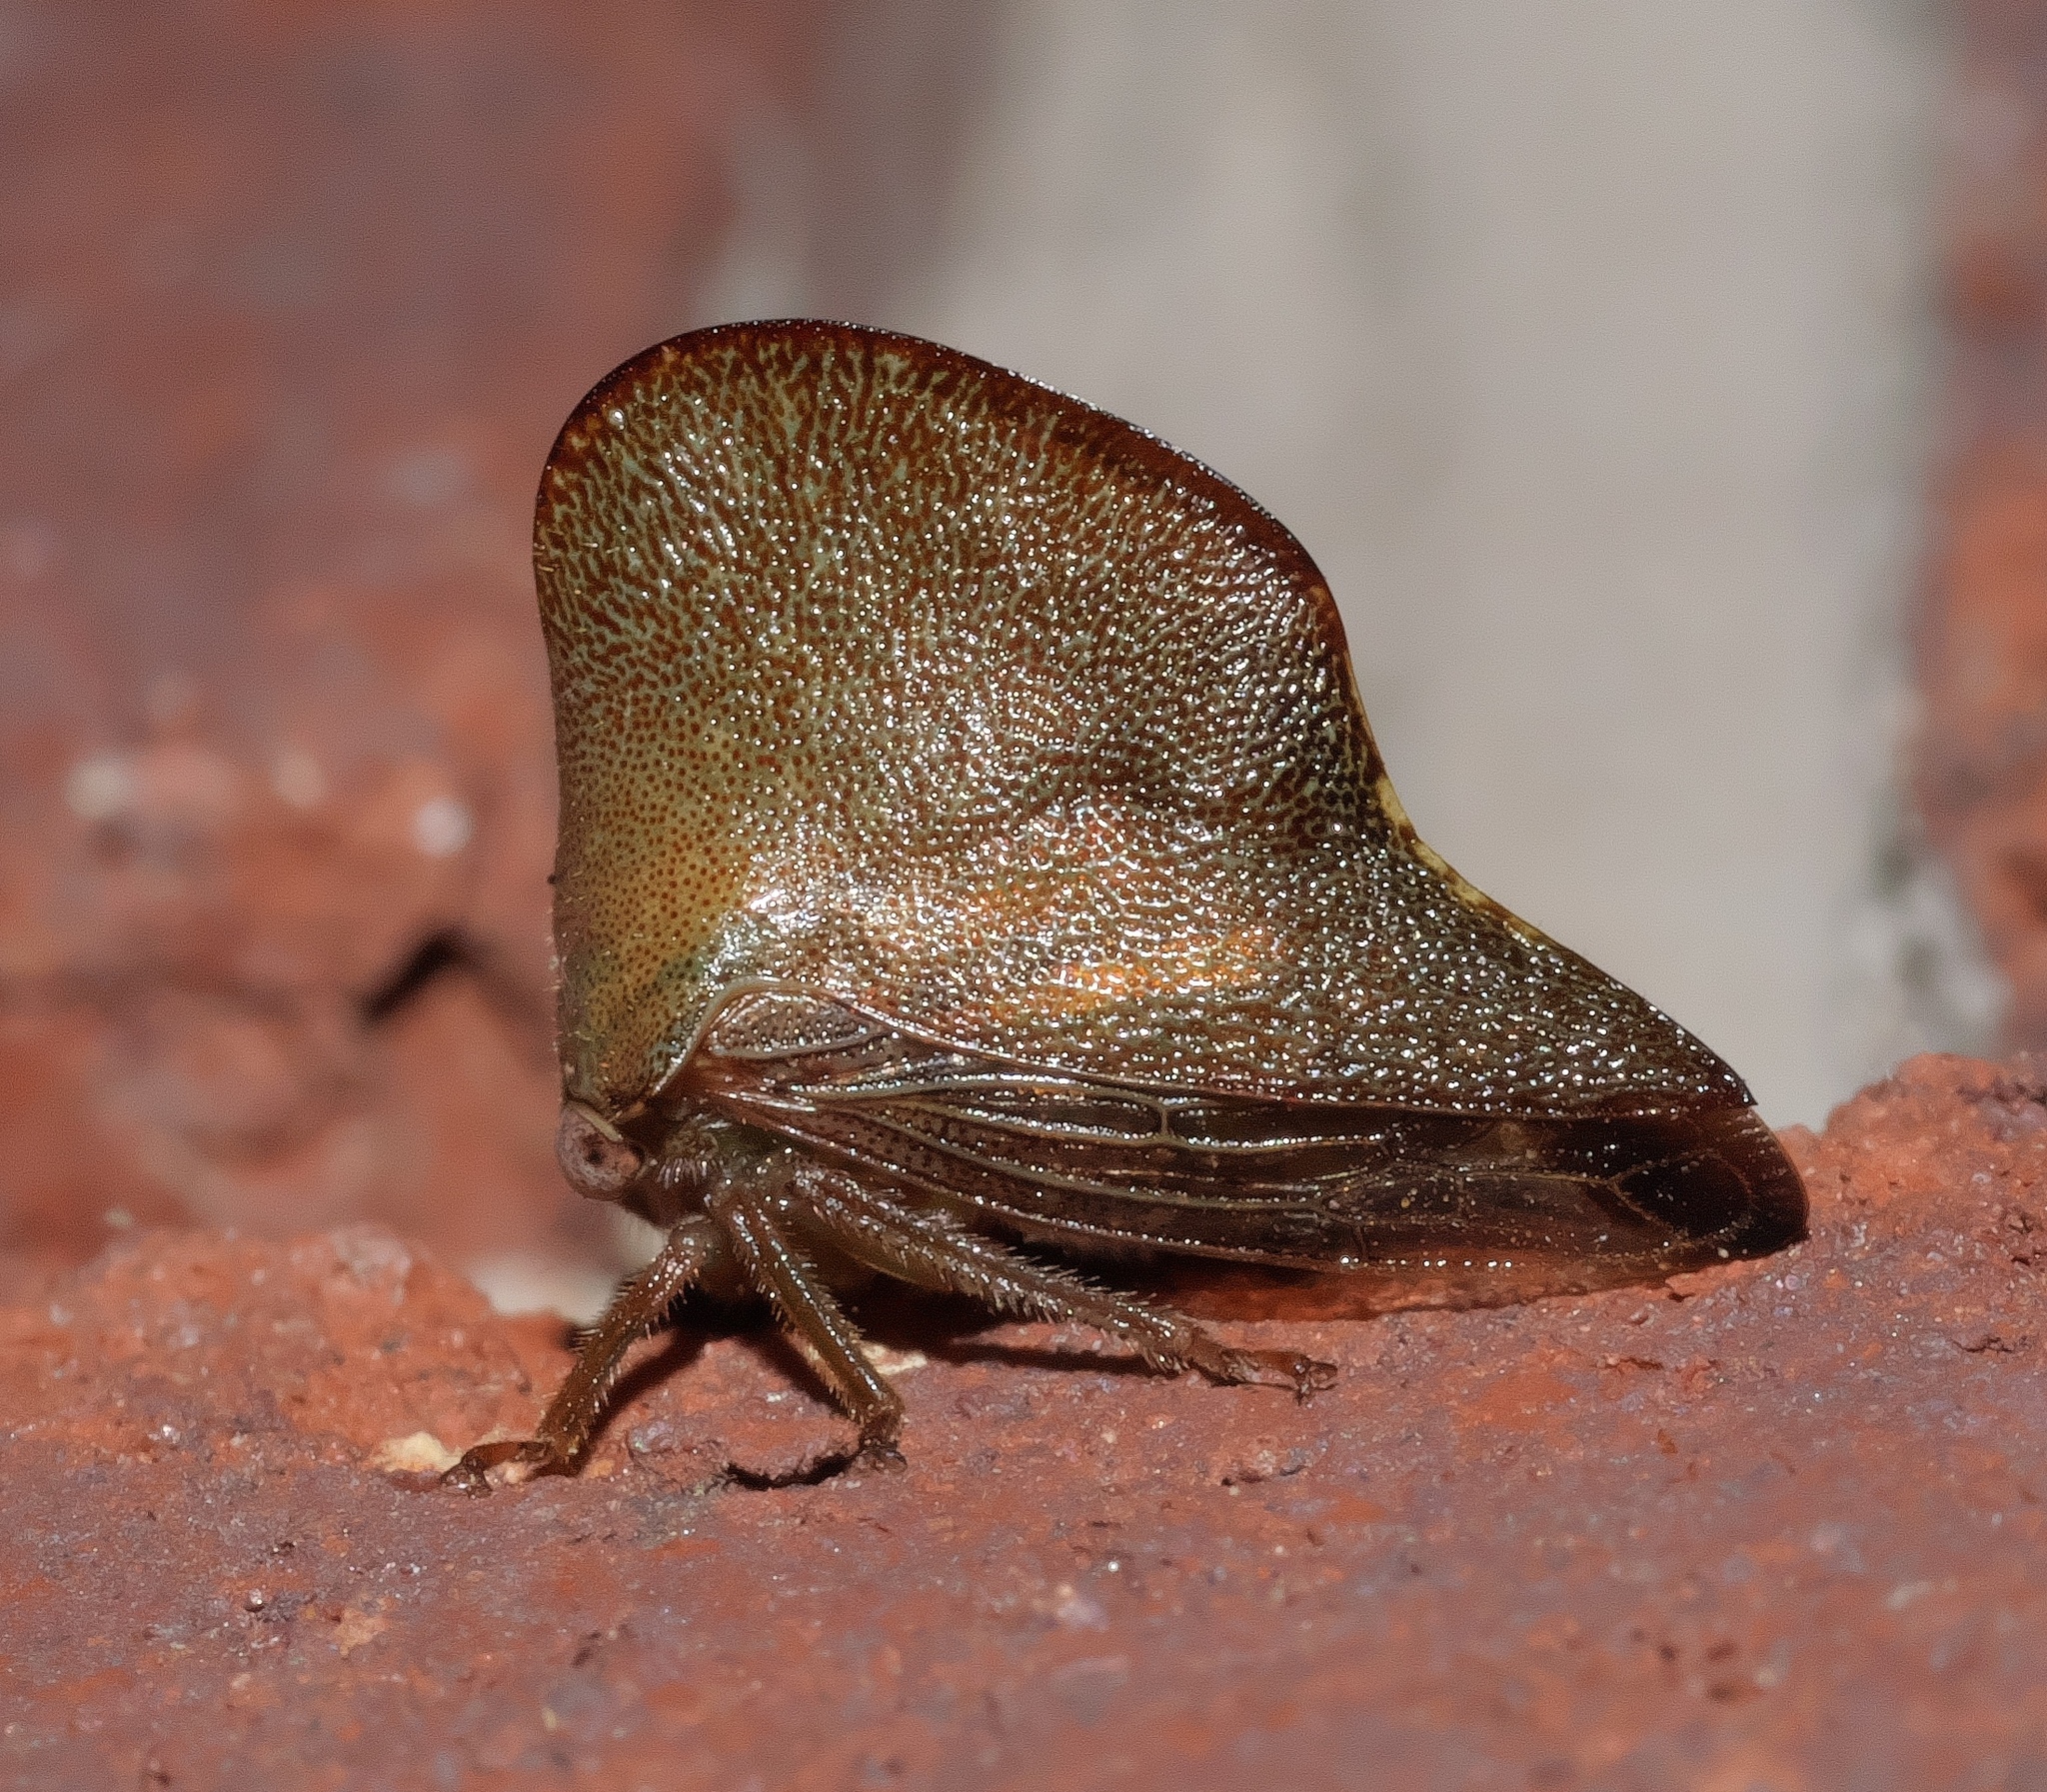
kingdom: Animalia
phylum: Arthropoda
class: Insecta
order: Hemiptera
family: Membracidae
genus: Telamona
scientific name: Telamona extrema
